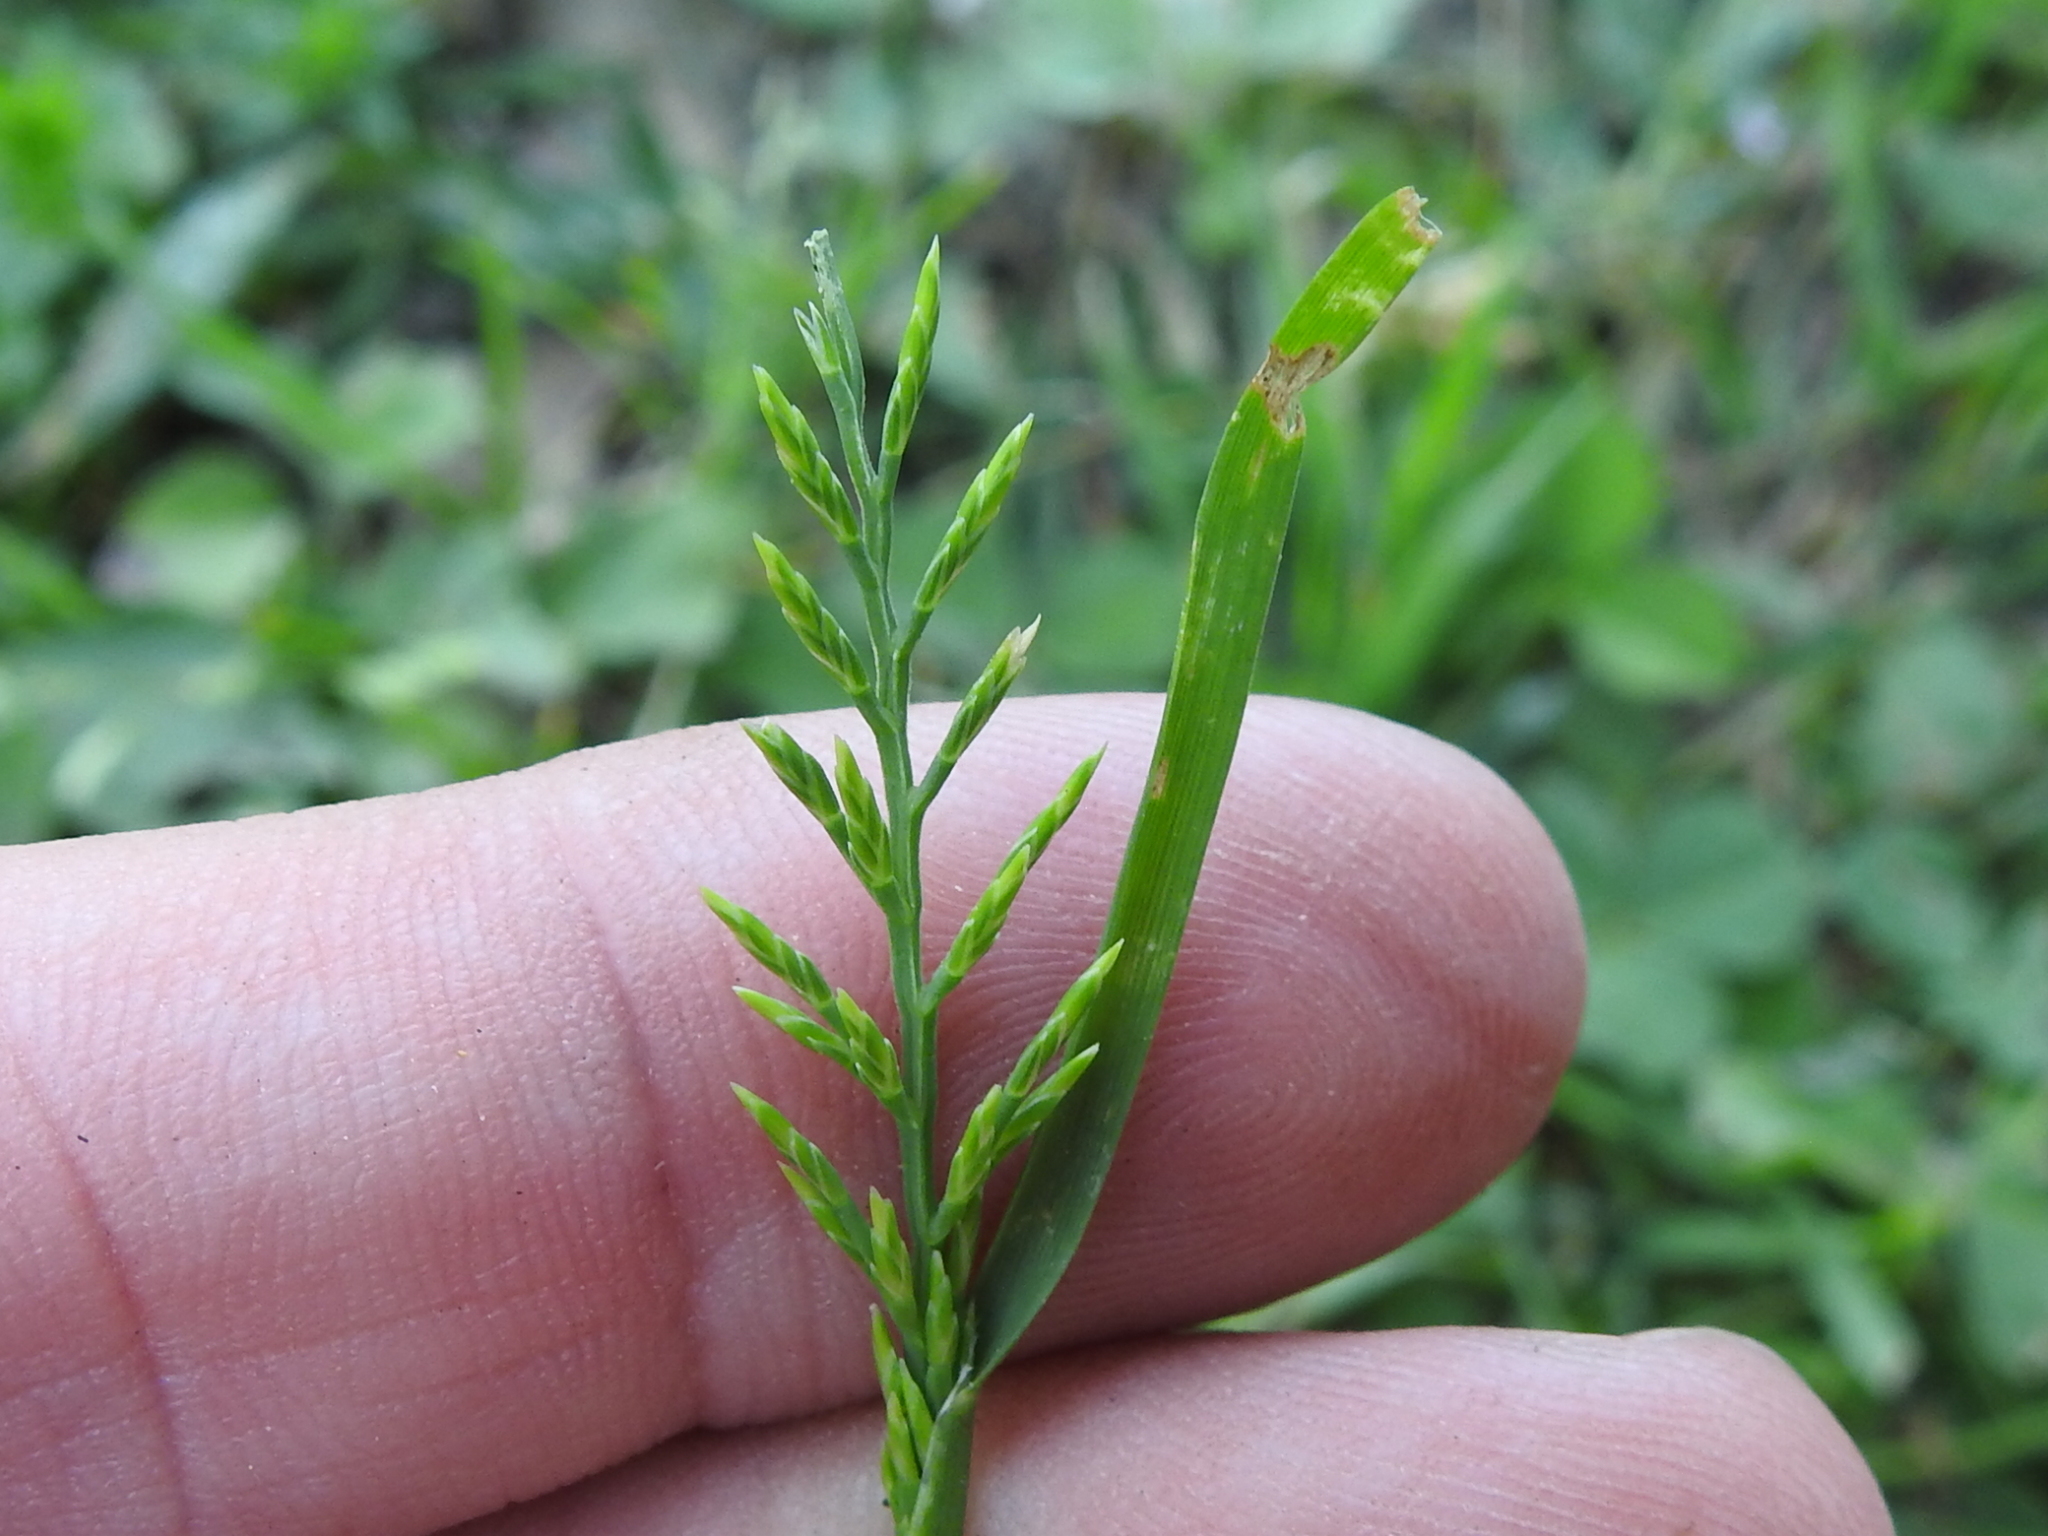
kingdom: Plantae
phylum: Tracheophyta
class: Liliopsida
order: Poales
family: Poaceae
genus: Catapodium
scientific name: Catapodium rigidum
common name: Fern-grass
